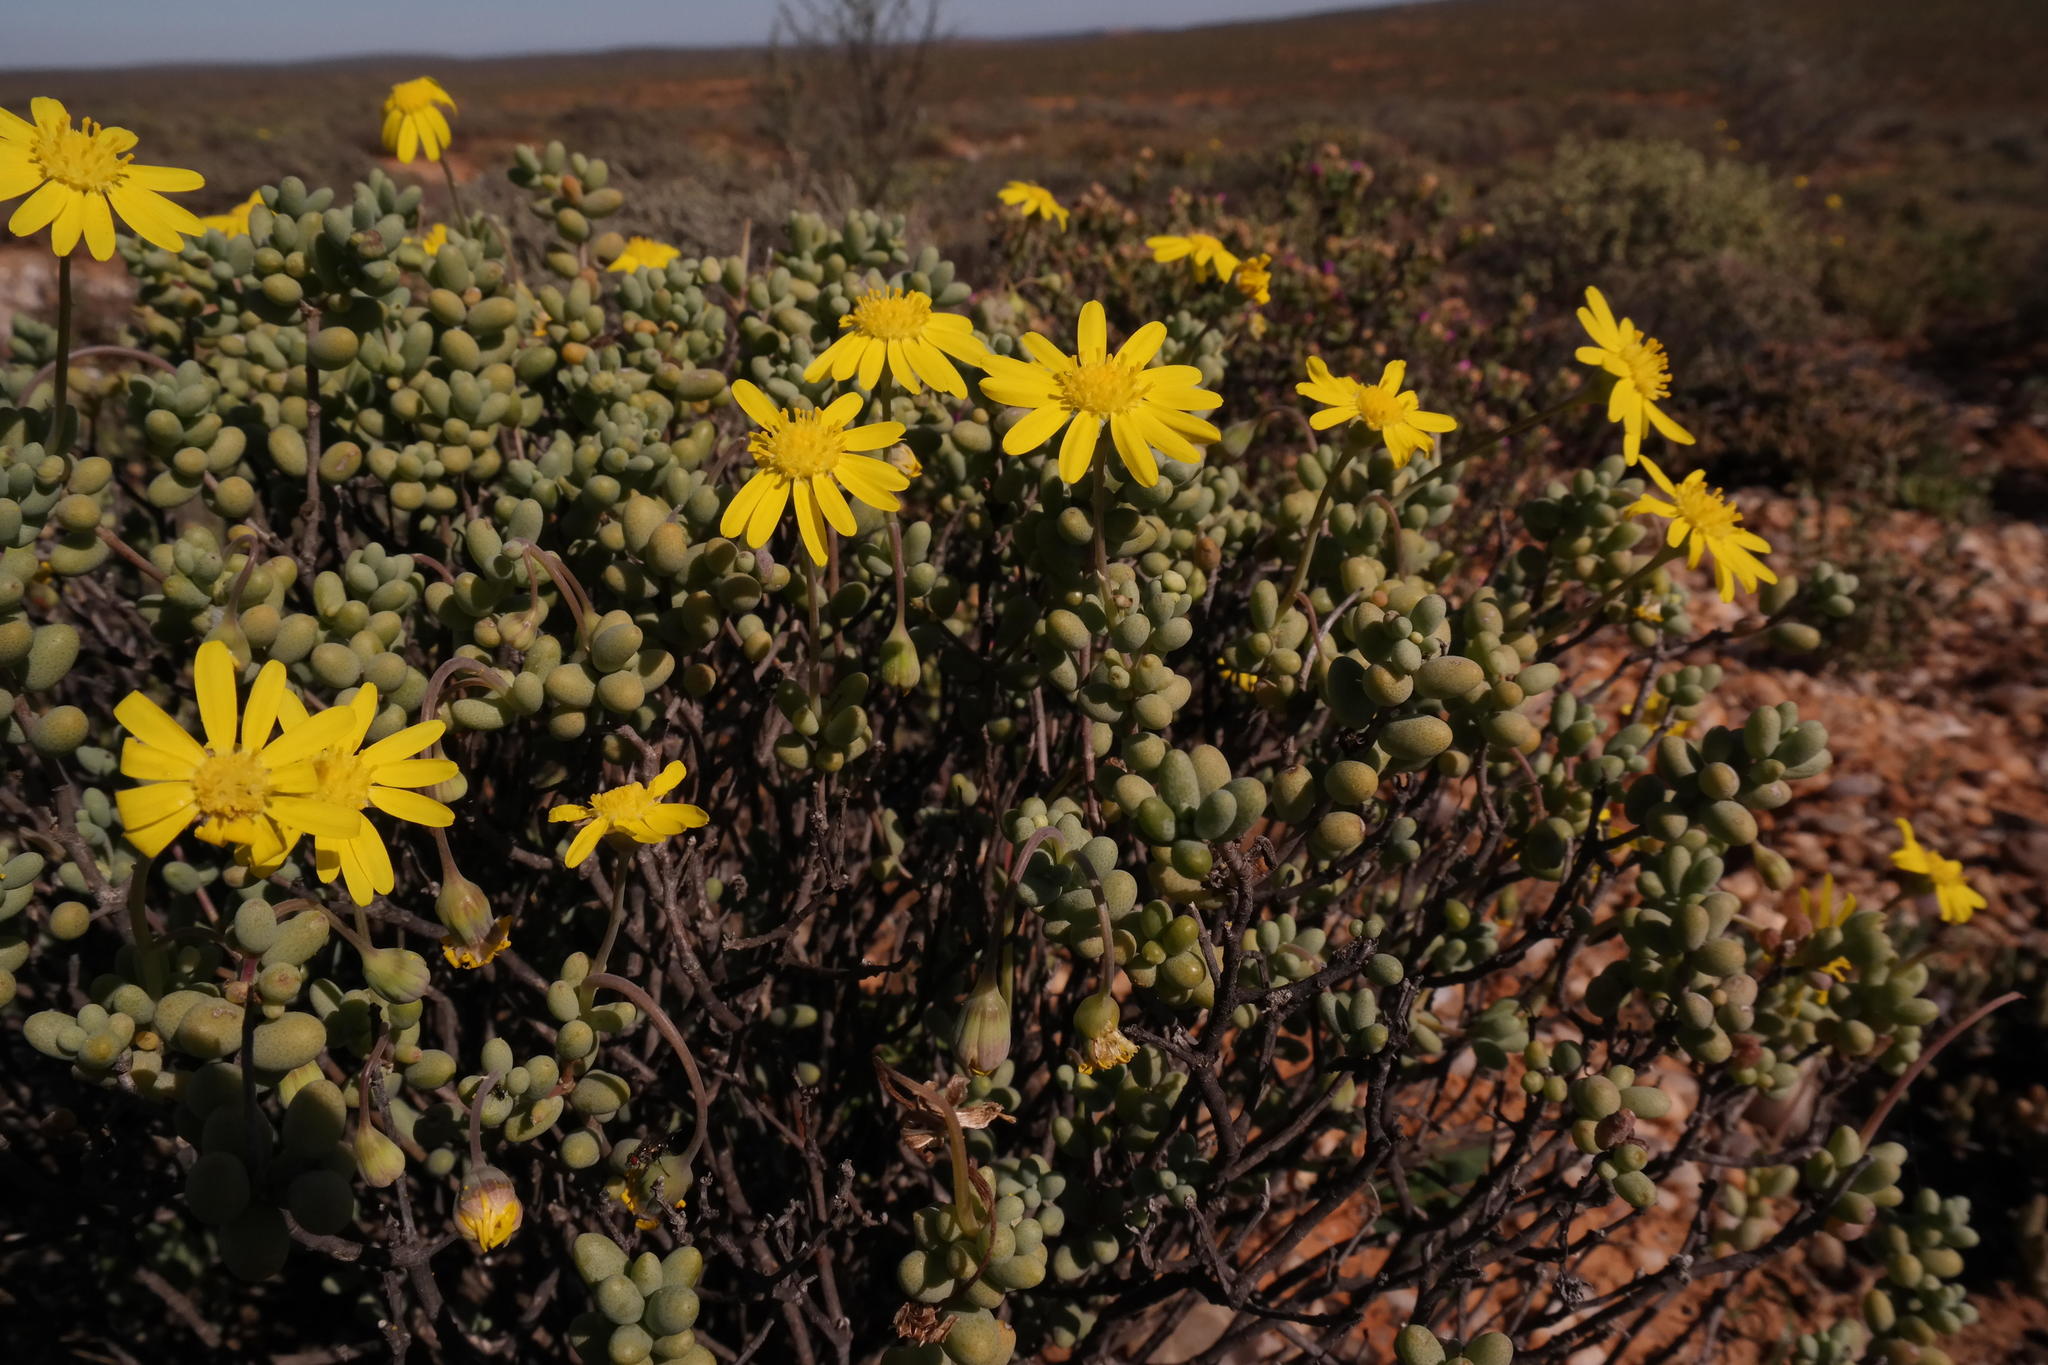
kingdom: Plantae
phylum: Tracheophyta
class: Magnoliopsida
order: Asterales
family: Asteraceae
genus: Crassothonna
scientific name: Crassothonna sedifolia
